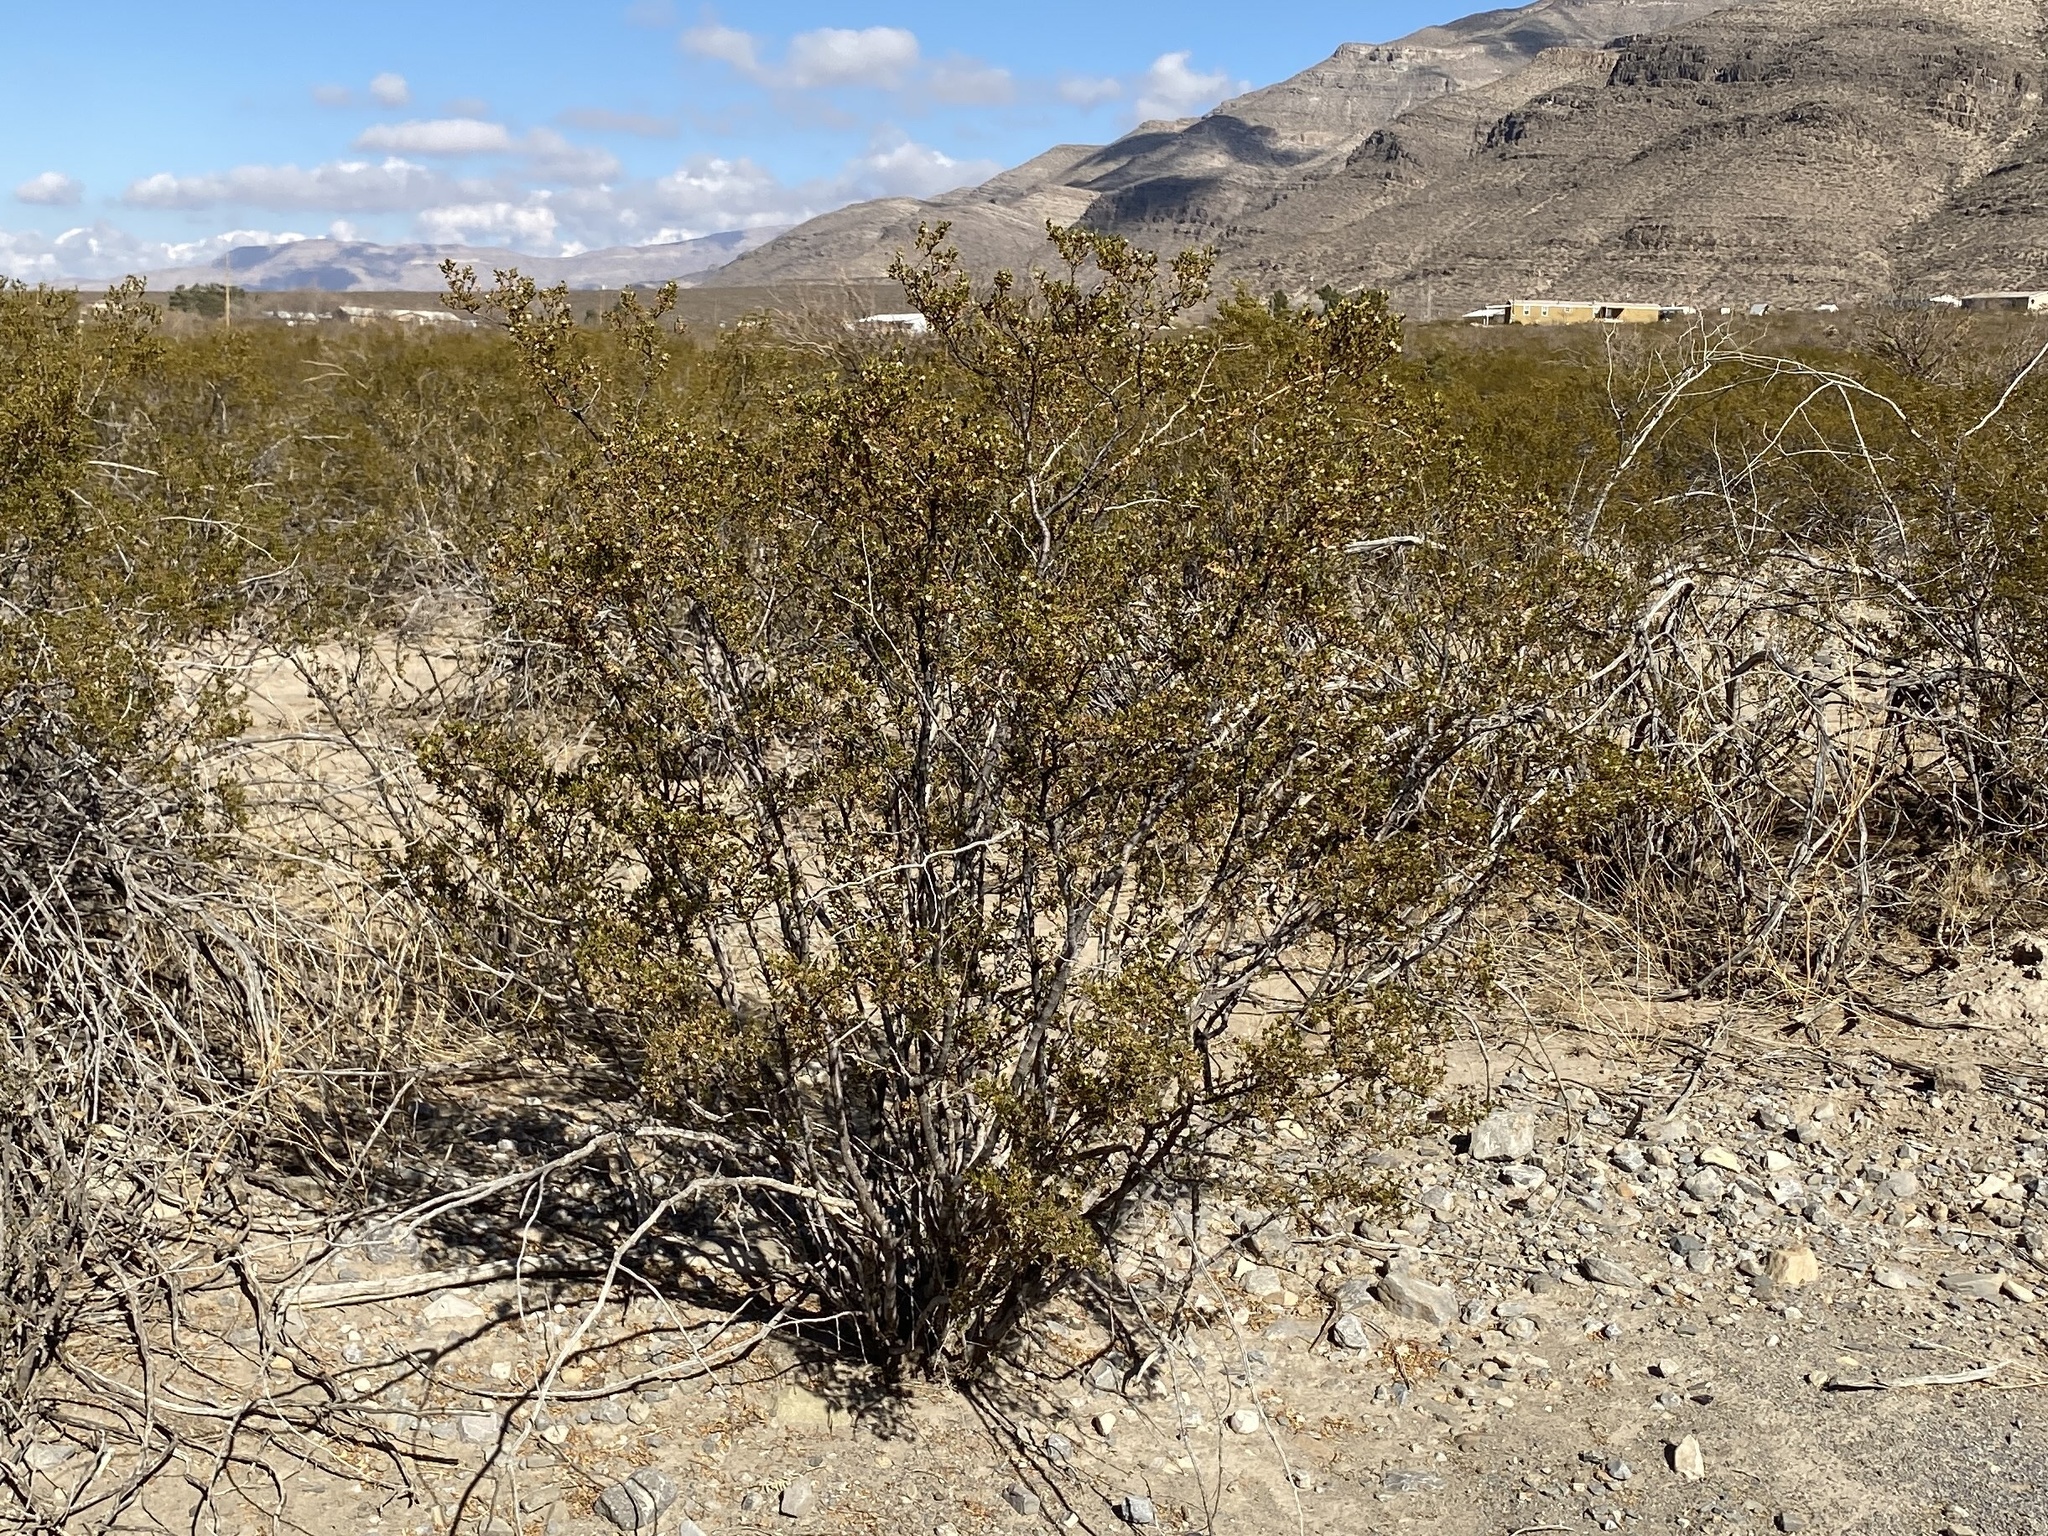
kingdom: Plantae
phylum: Tracheophyta
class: Magnoliopsida
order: Zygophyllales
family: Zygophyllaceae
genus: Larrea
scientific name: Larrea tridentata
